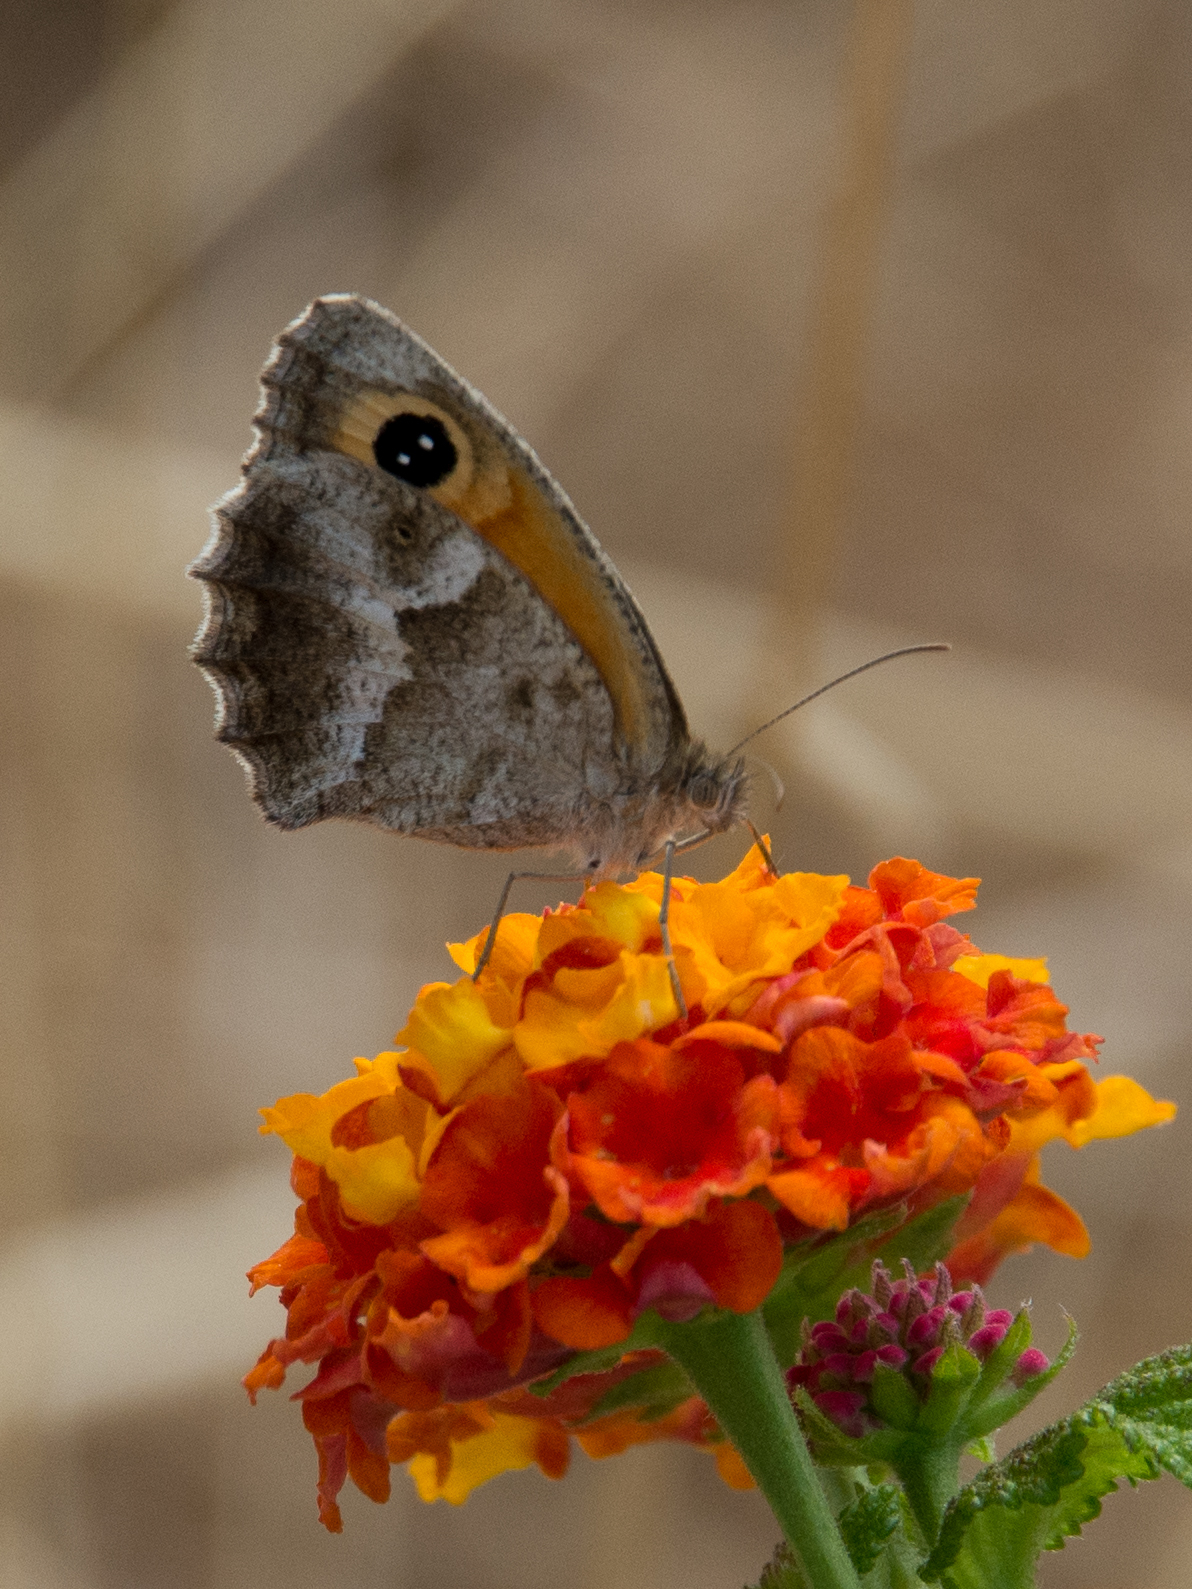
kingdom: Animalia
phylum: Arthropoda
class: Insecta
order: Lepidoptera
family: Nymphalidae
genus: Pyronia
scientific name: Pyronia cecilia
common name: Southern gatekeeper
